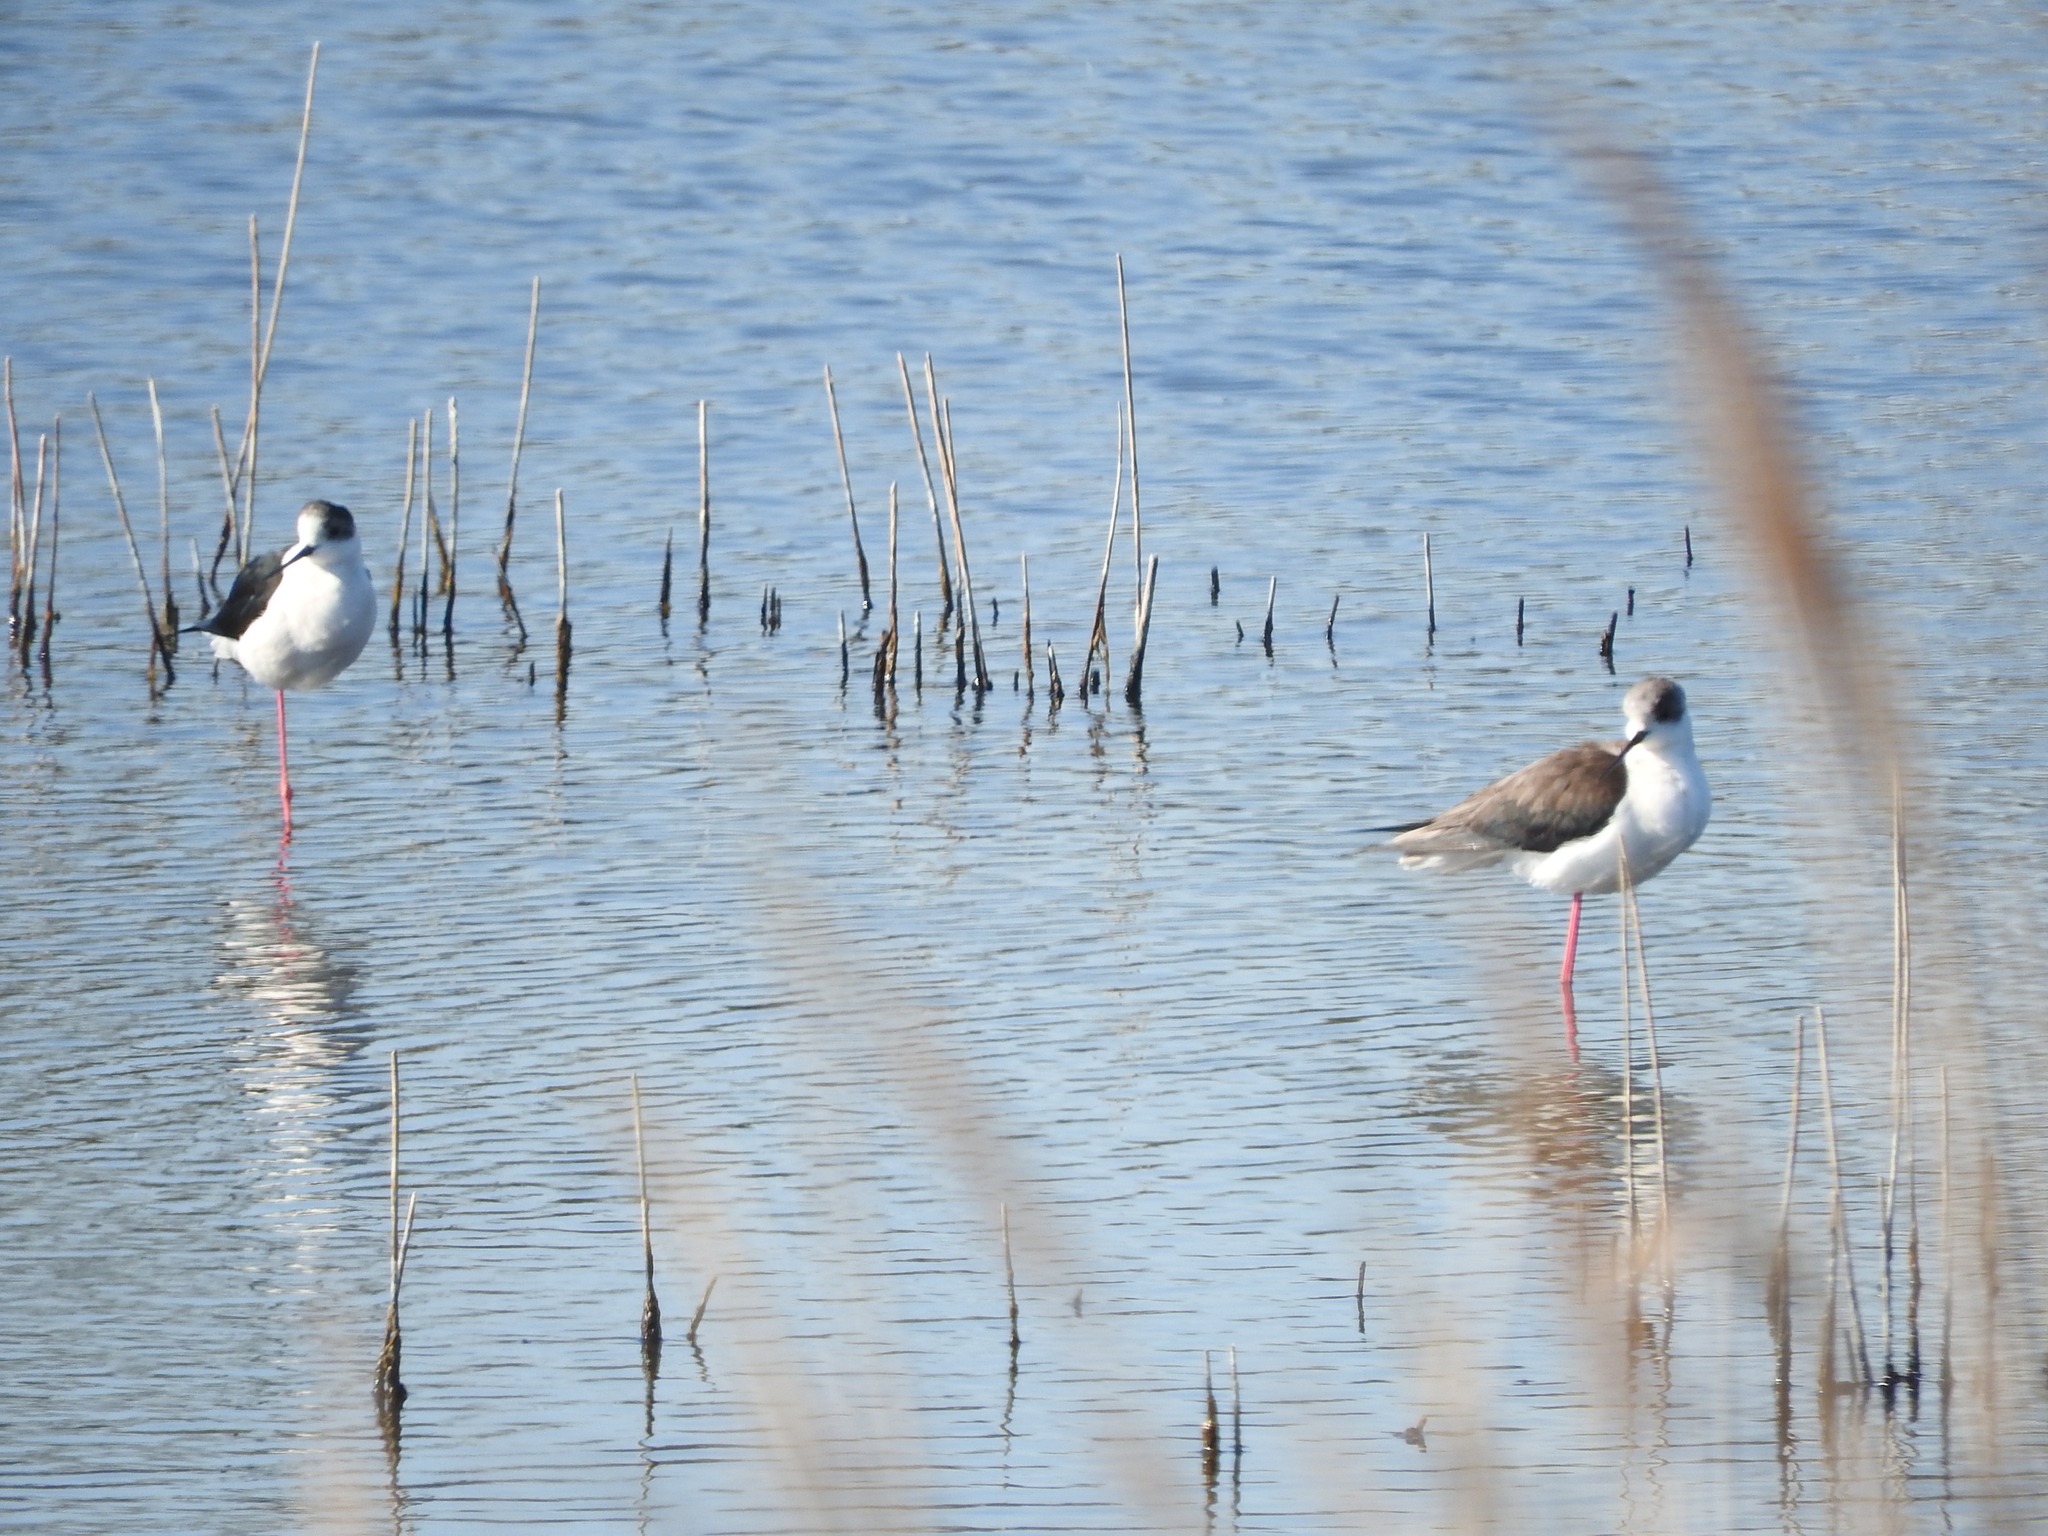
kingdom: Animalia
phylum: Chordata
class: Aves
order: Charadriiformes
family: Recurvirostridae
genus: Himantopus
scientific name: Himantopus himantopus
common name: Black-winged stilt
